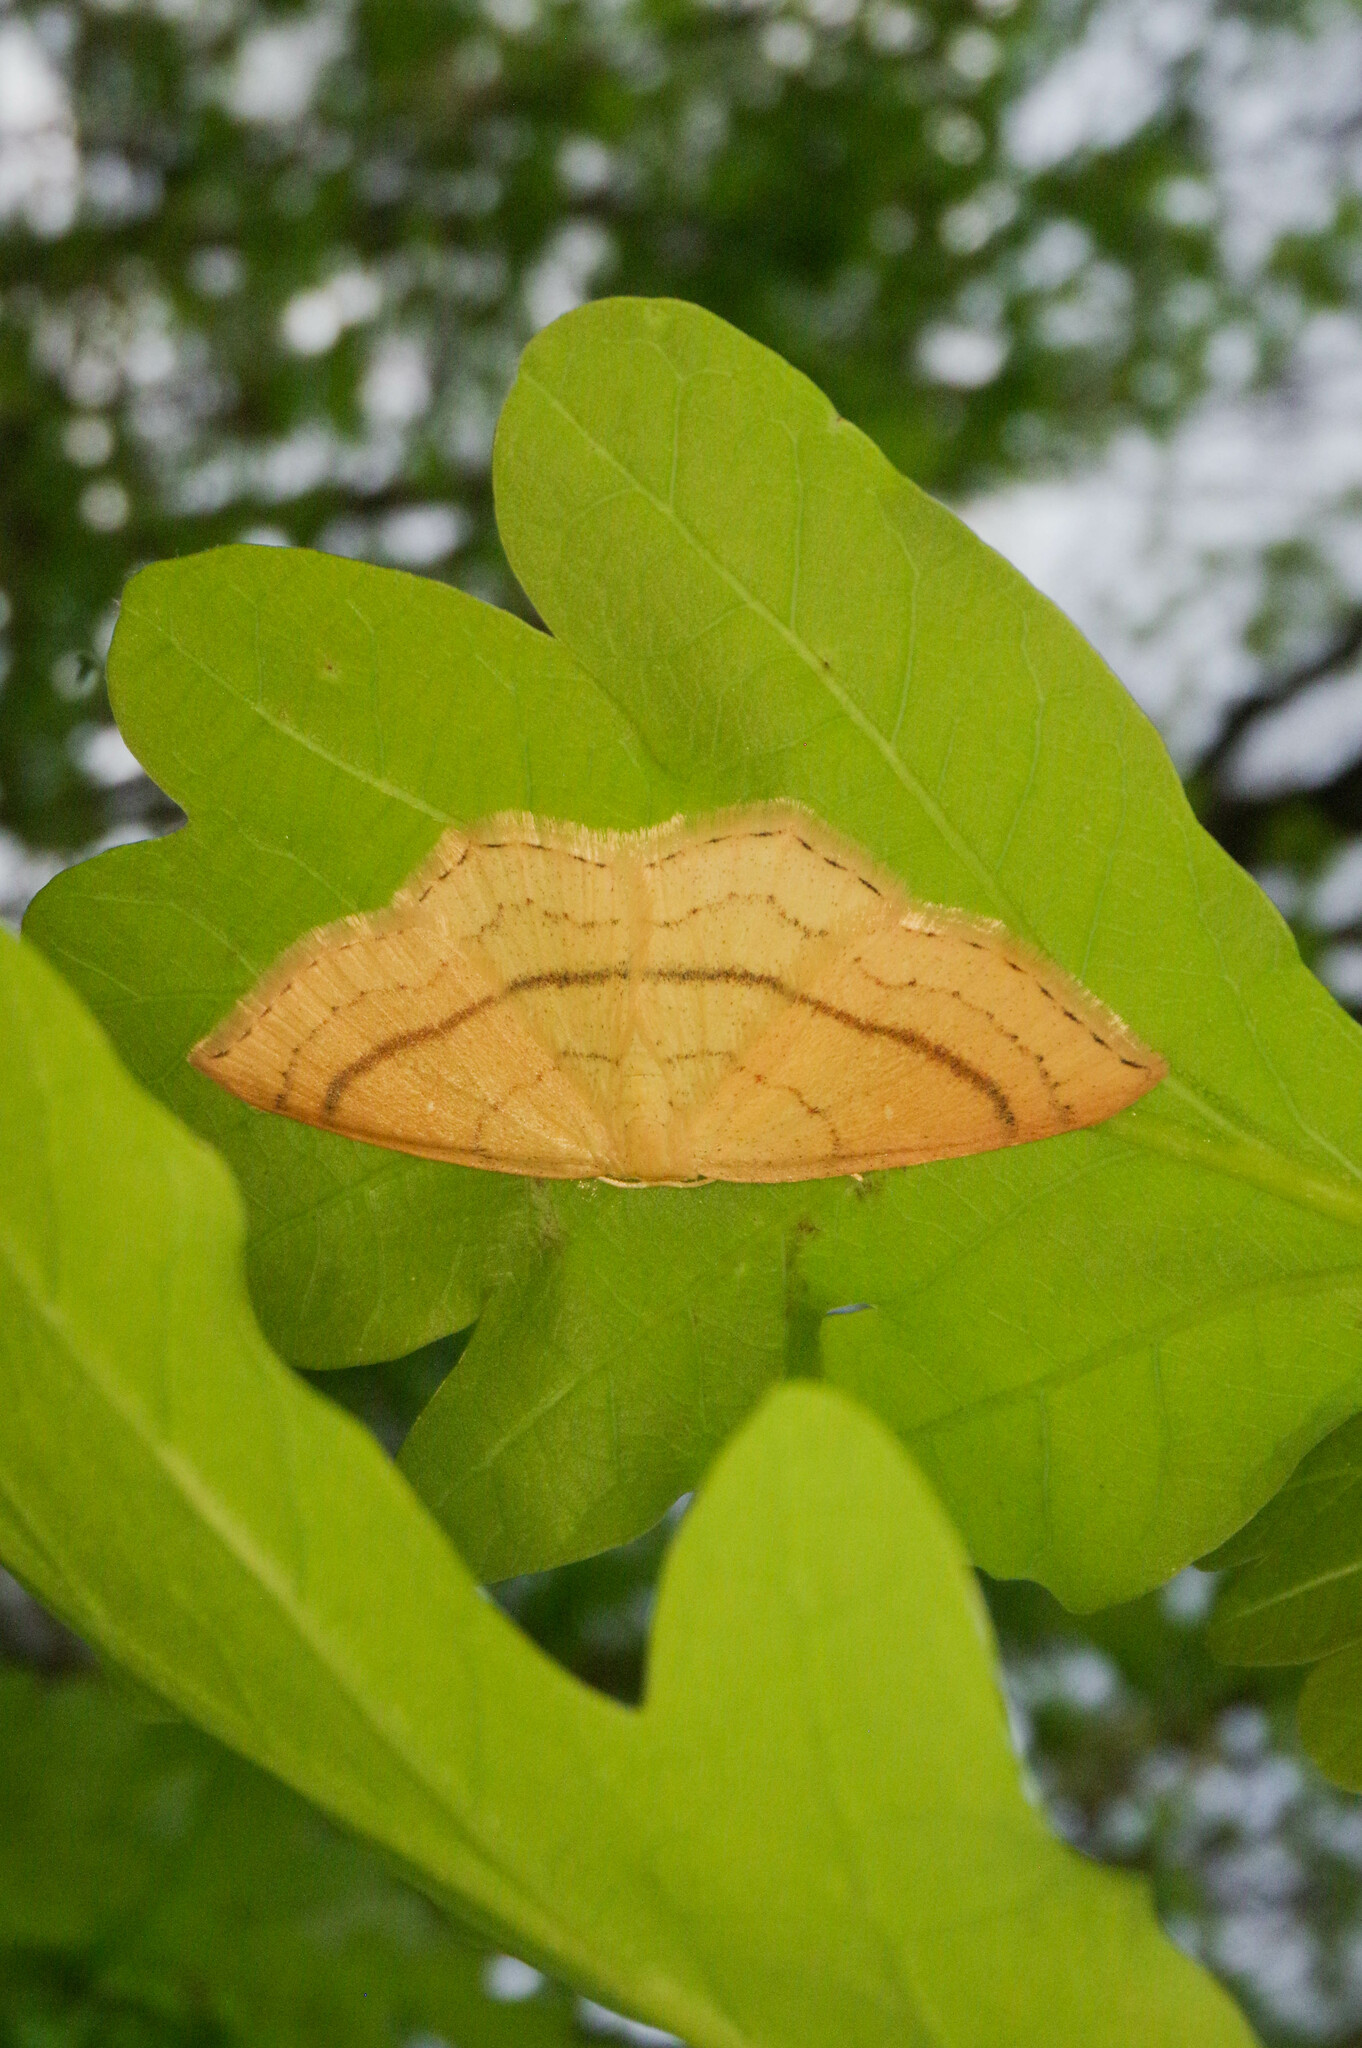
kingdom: Animalia
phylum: Arthropoda
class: Insecta
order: Lepidoptera
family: Geometridae
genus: Cyclophora
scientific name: Cyclophora linearia
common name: Clay triple-lines
